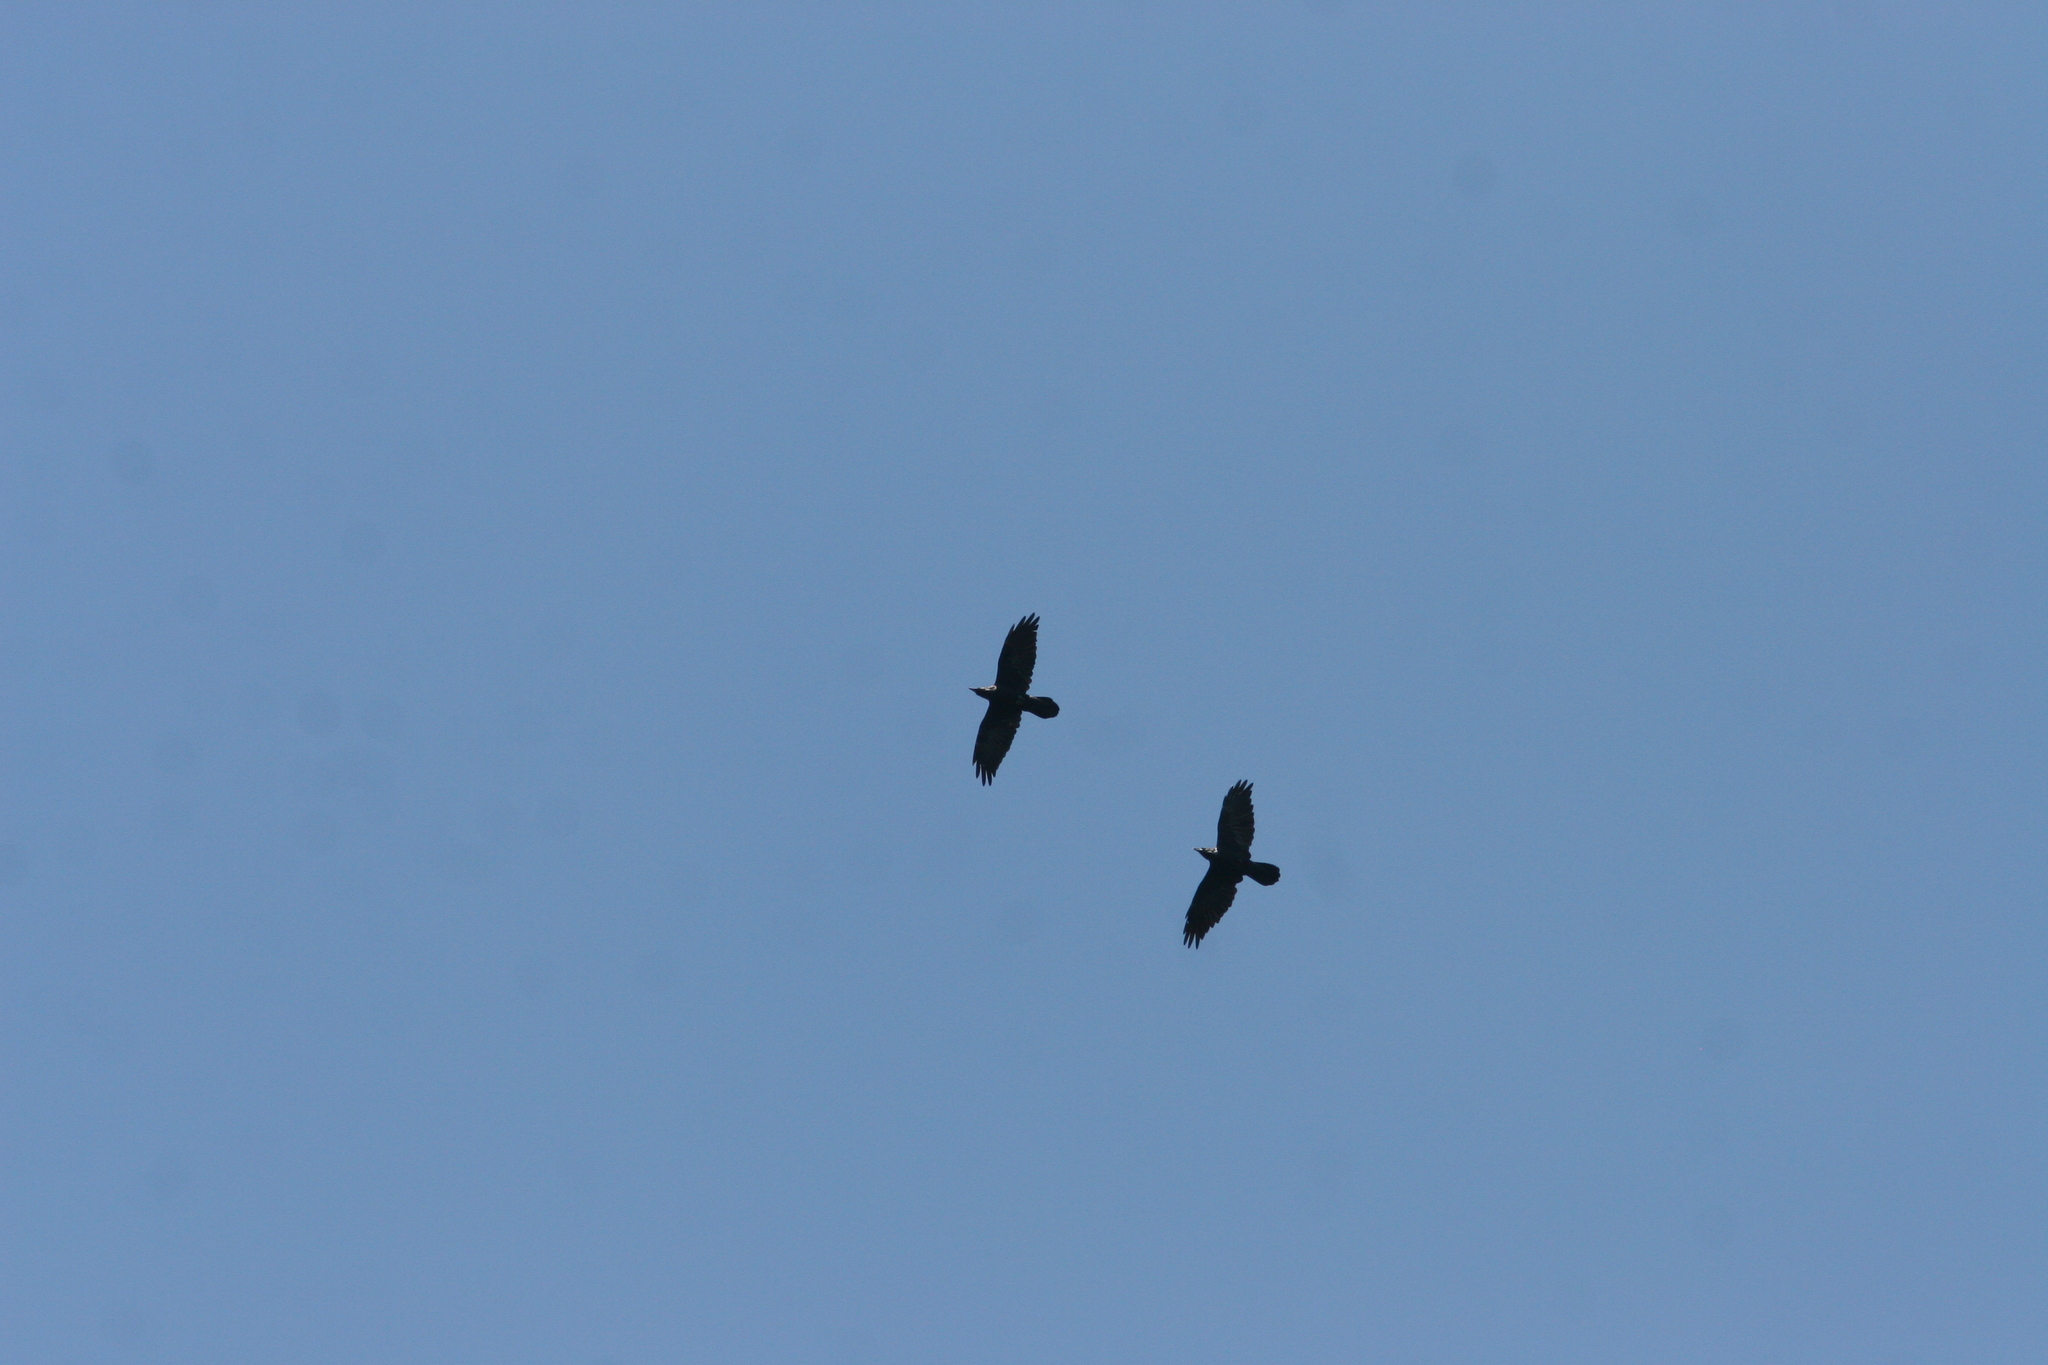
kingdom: Animalia
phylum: Chordata
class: Aves
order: Passeriformes
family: Corvidae
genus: Corvus
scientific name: Corvus corax
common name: Common raven
